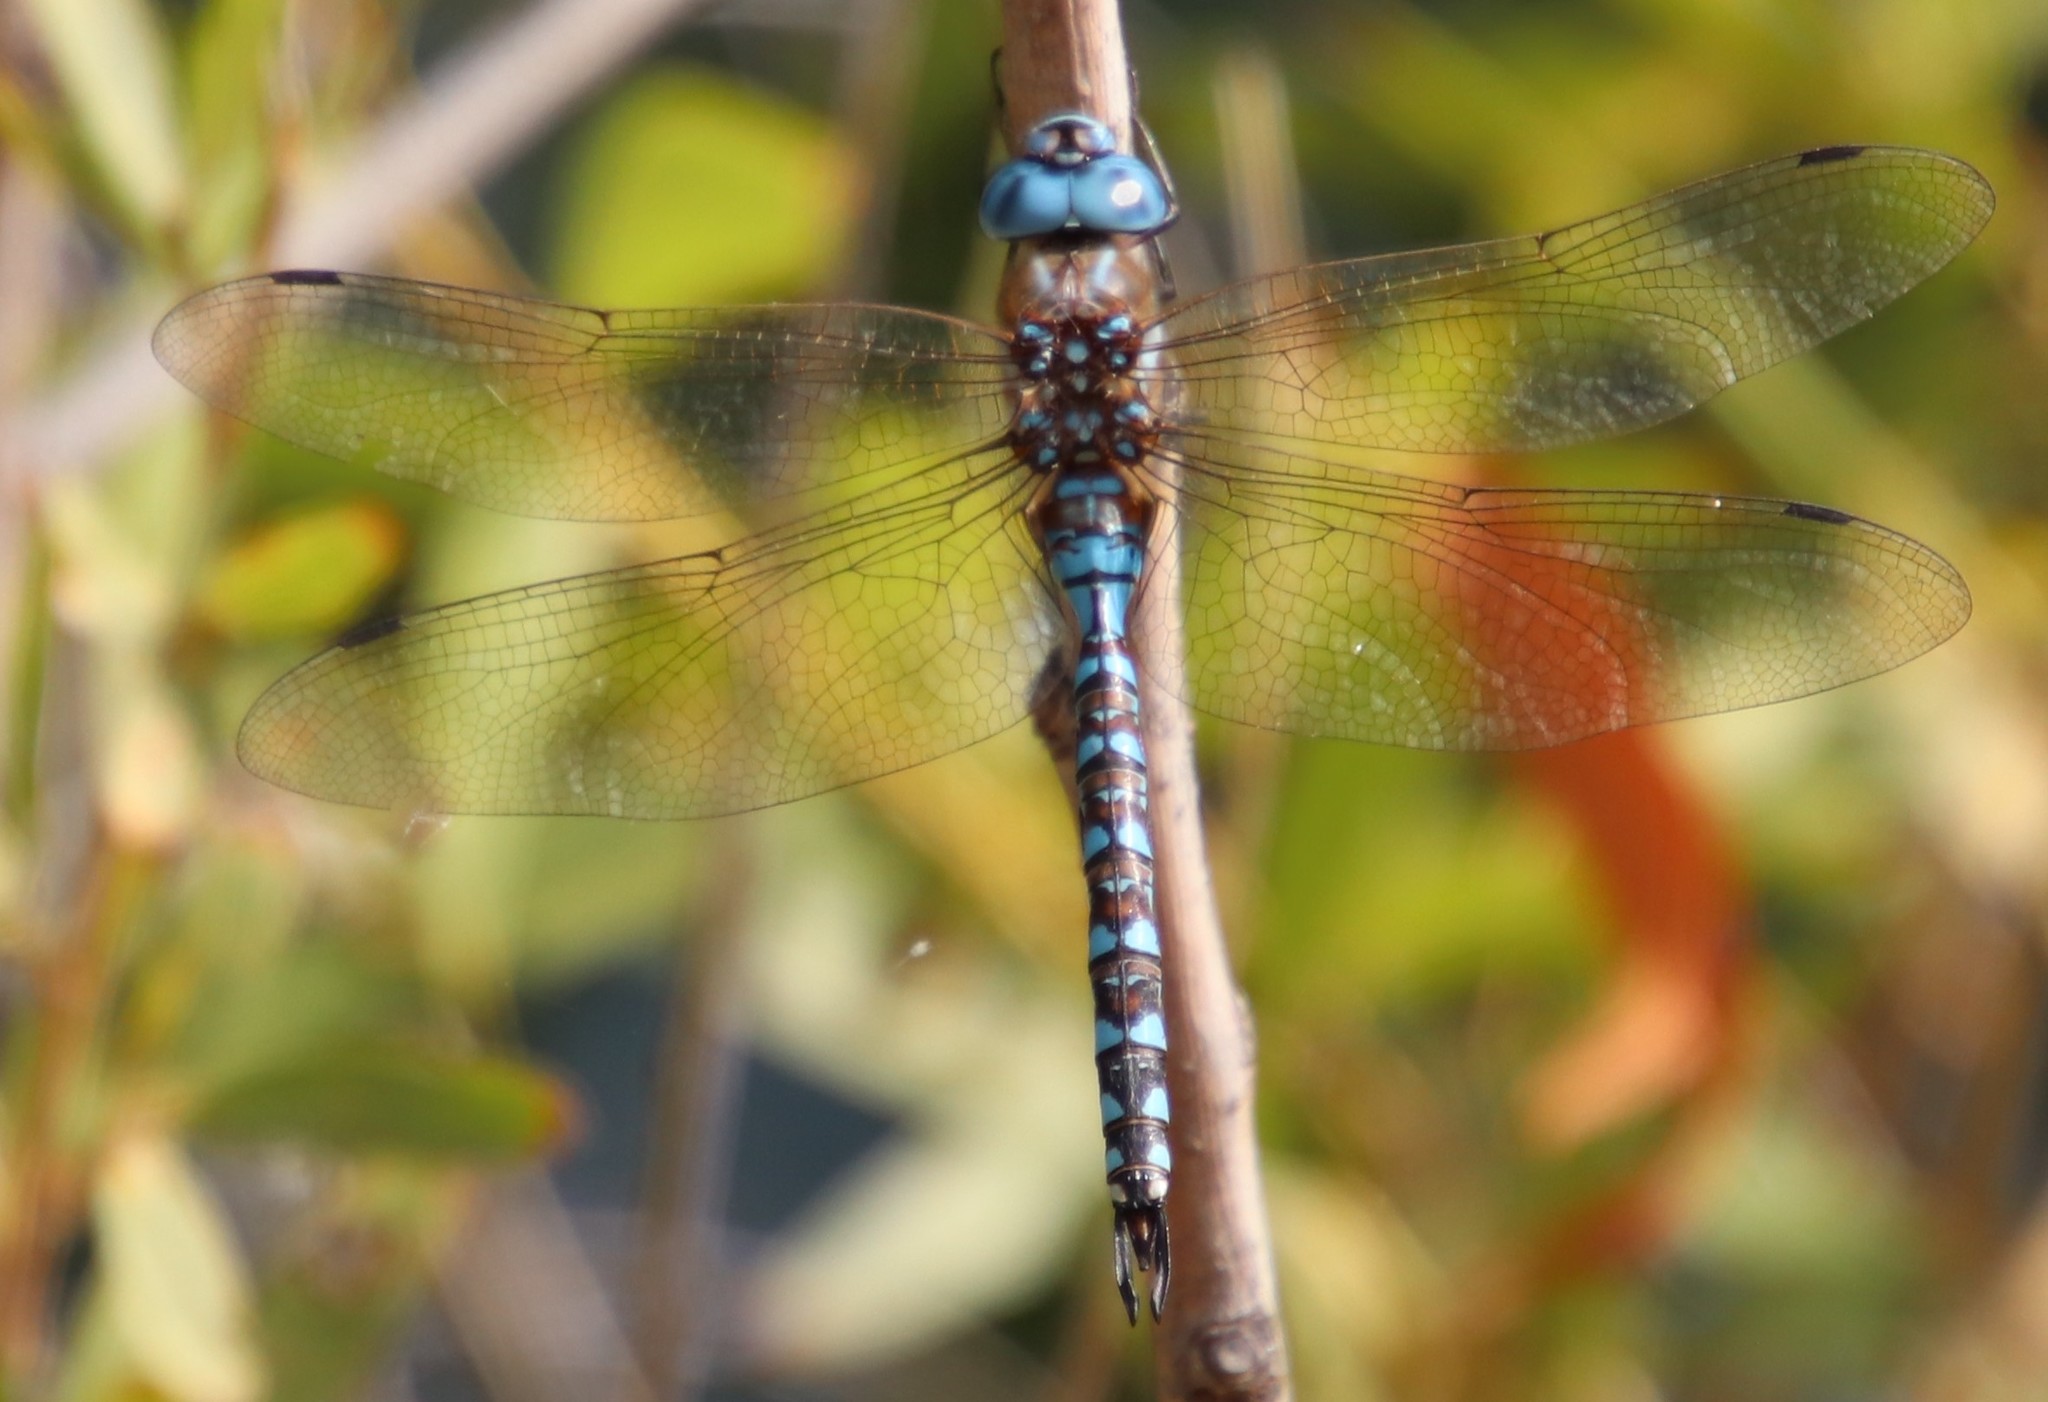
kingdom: Animalia
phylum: Arthropoda
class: Insecta
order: Odonata
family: Aeshnidae
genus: Rhionaeschna
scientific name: Rhionaeschna multicolor
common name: Blue-eyed darner
